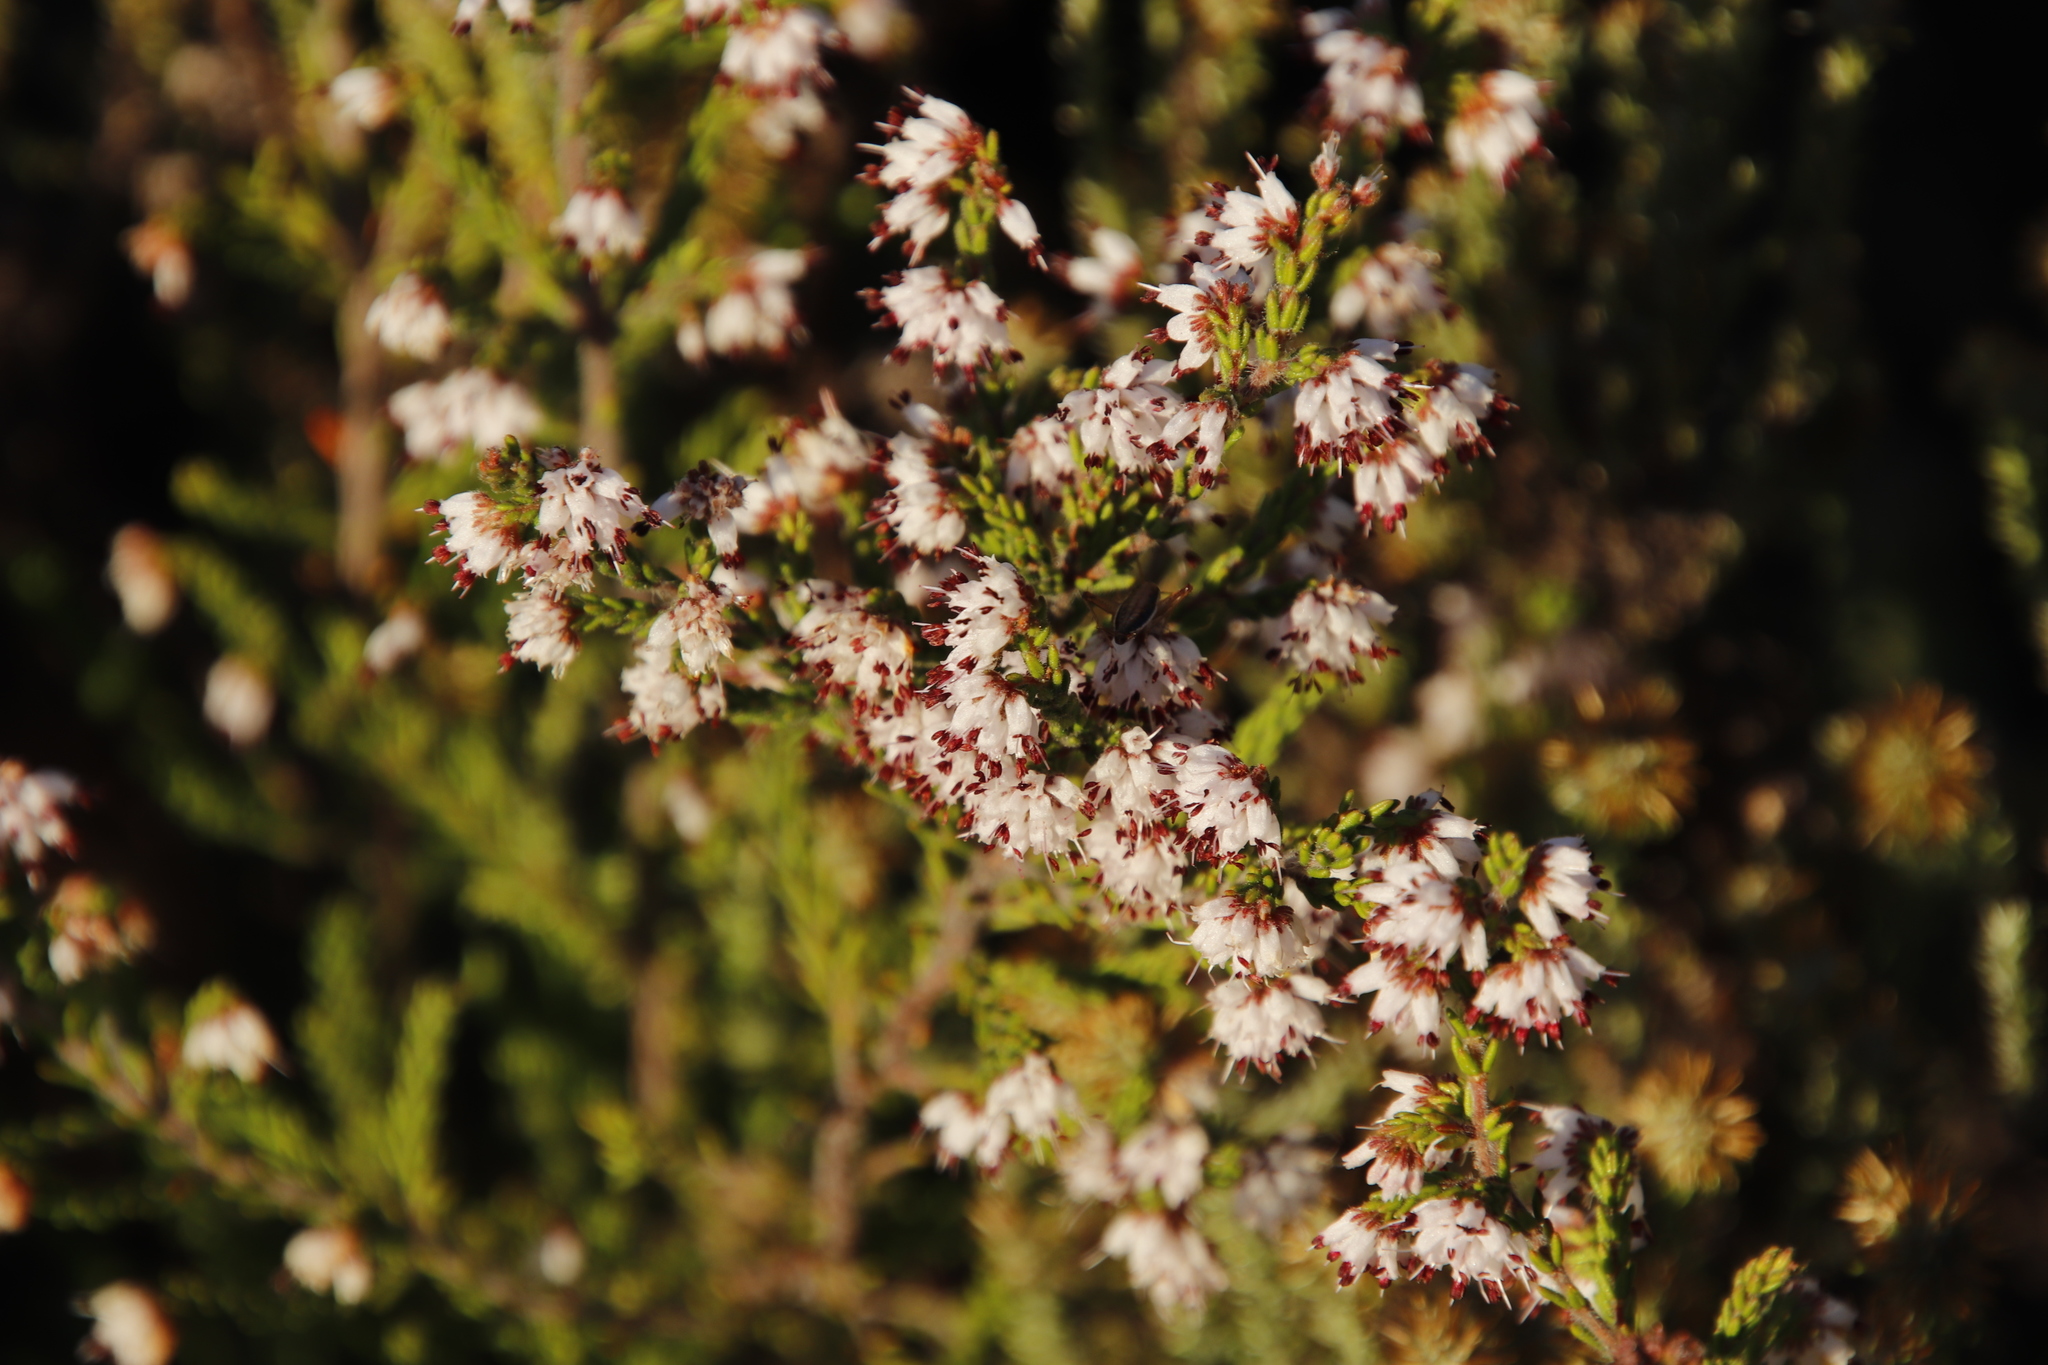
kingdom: Plantae
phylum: Tracheophyta
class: Magnoliopsida
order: Ericales
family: Ericaceae
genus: Erica
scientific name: Erica ericoides
